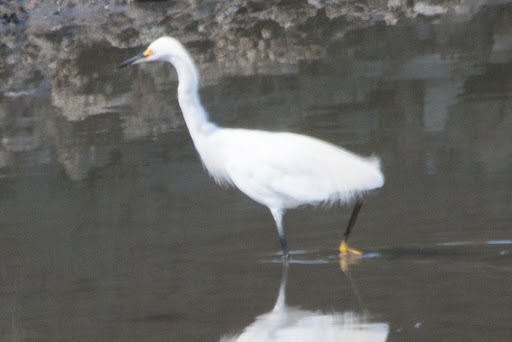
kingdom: Animalia
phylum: Chordata
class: Aves
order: Pelecaniformes
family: Ardeidae
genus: Egretta
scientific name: Egretta thula
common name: Snowy egret
